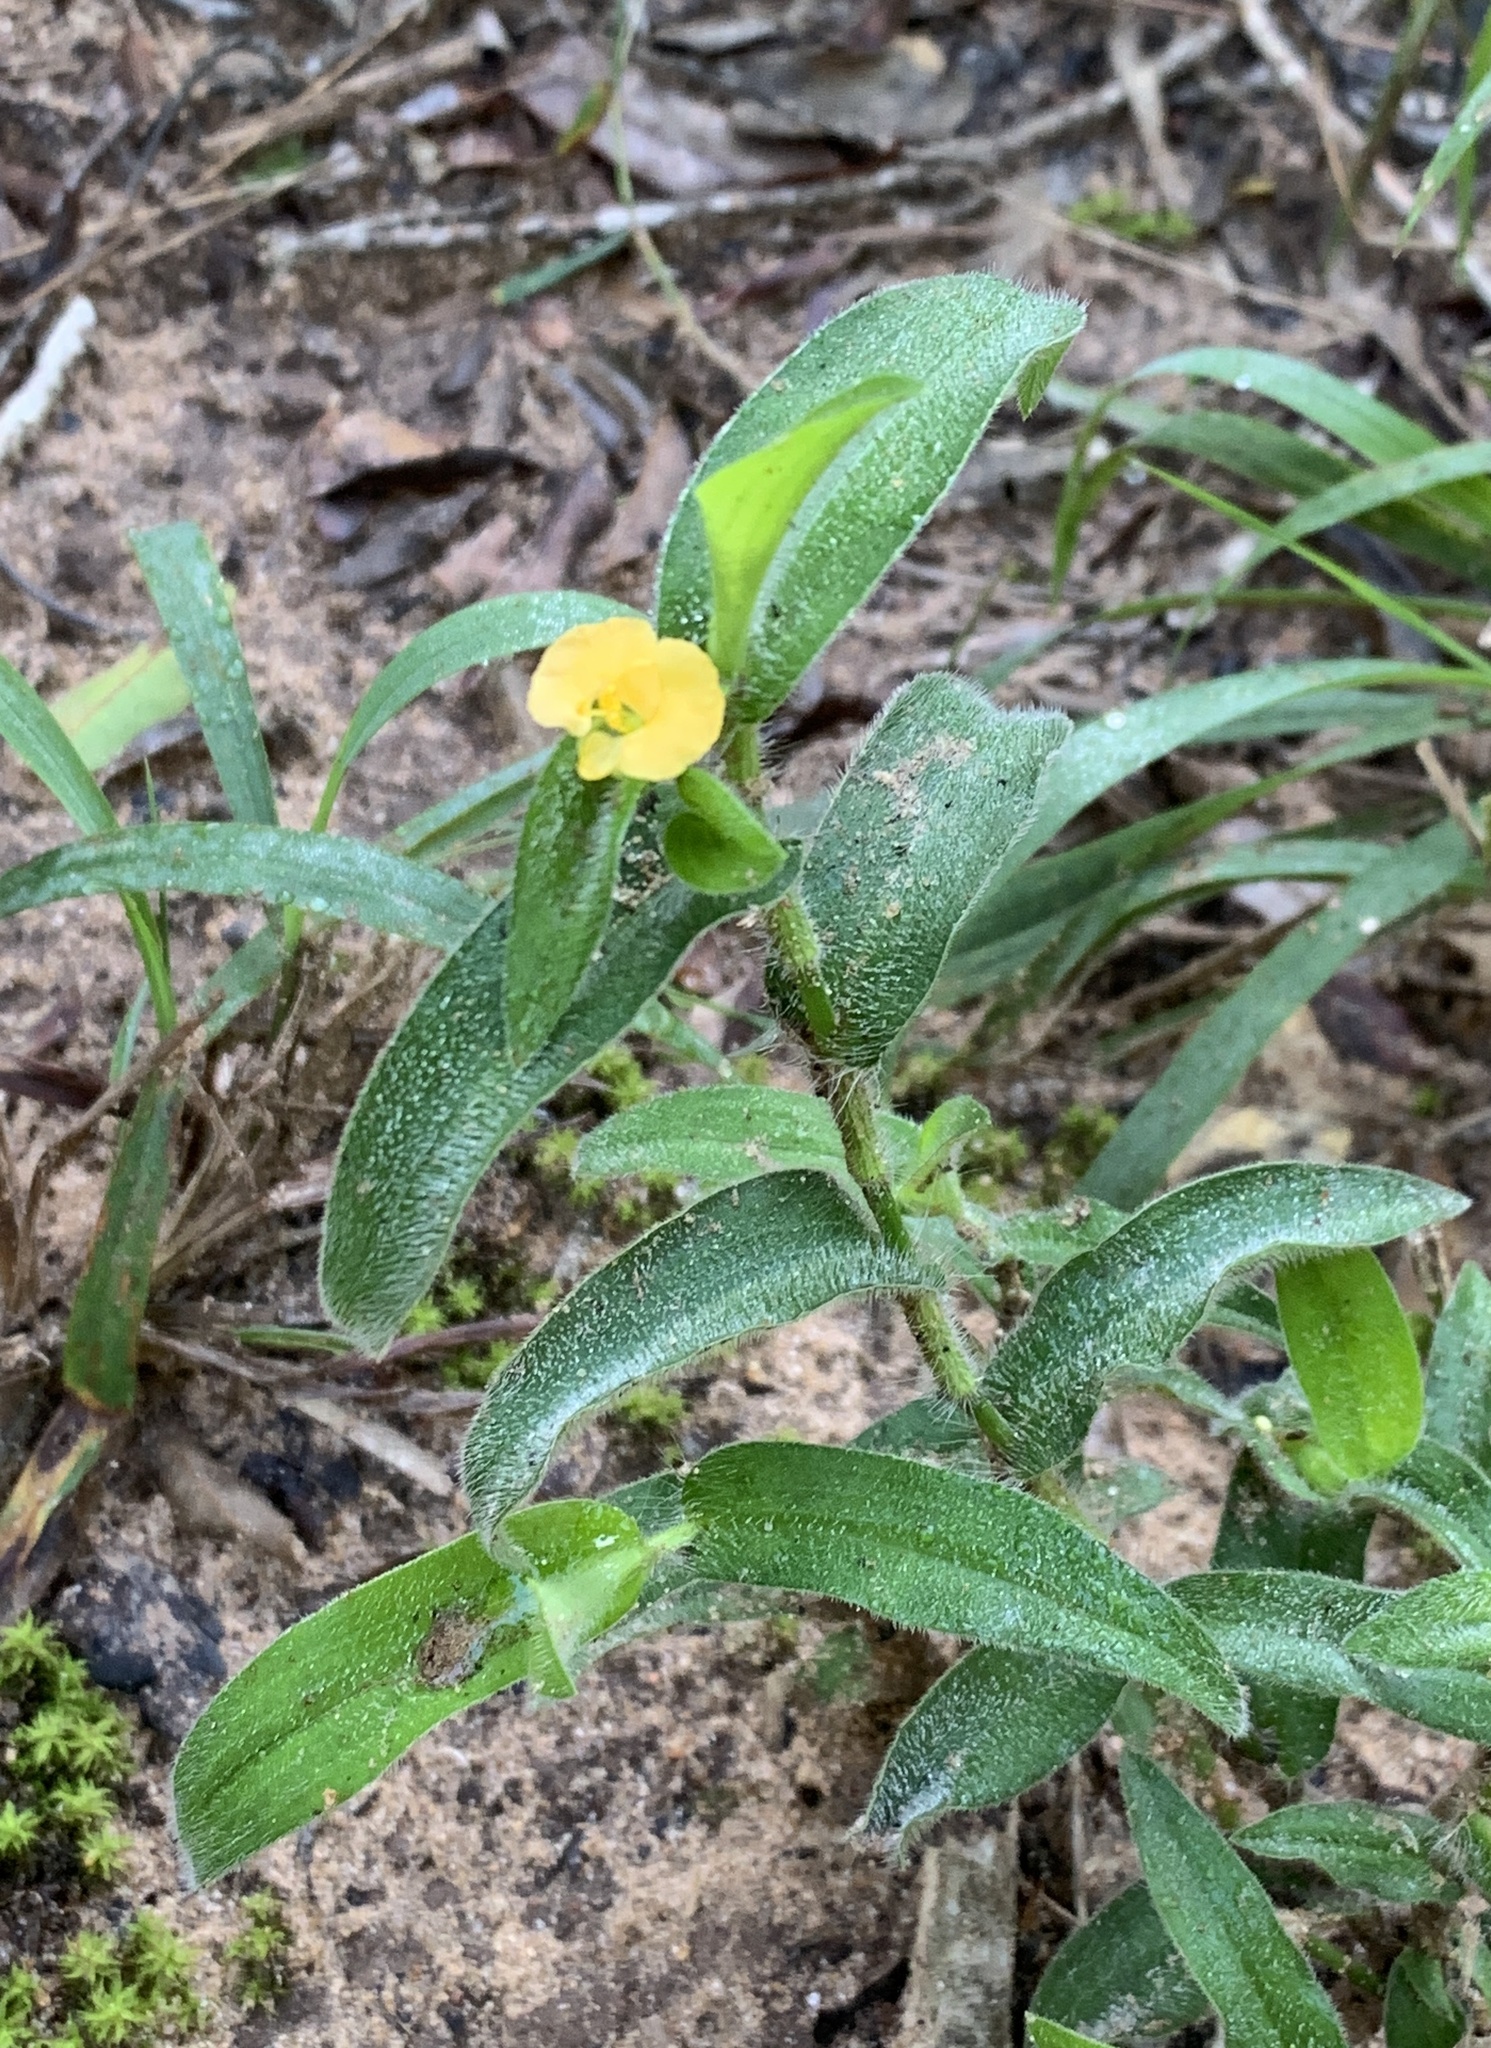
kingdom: Plantae
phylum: Tracheophyta
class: Liliopsida
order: Commelinales
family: Commelinaceae
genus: Commelina
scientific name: Commelina africana
